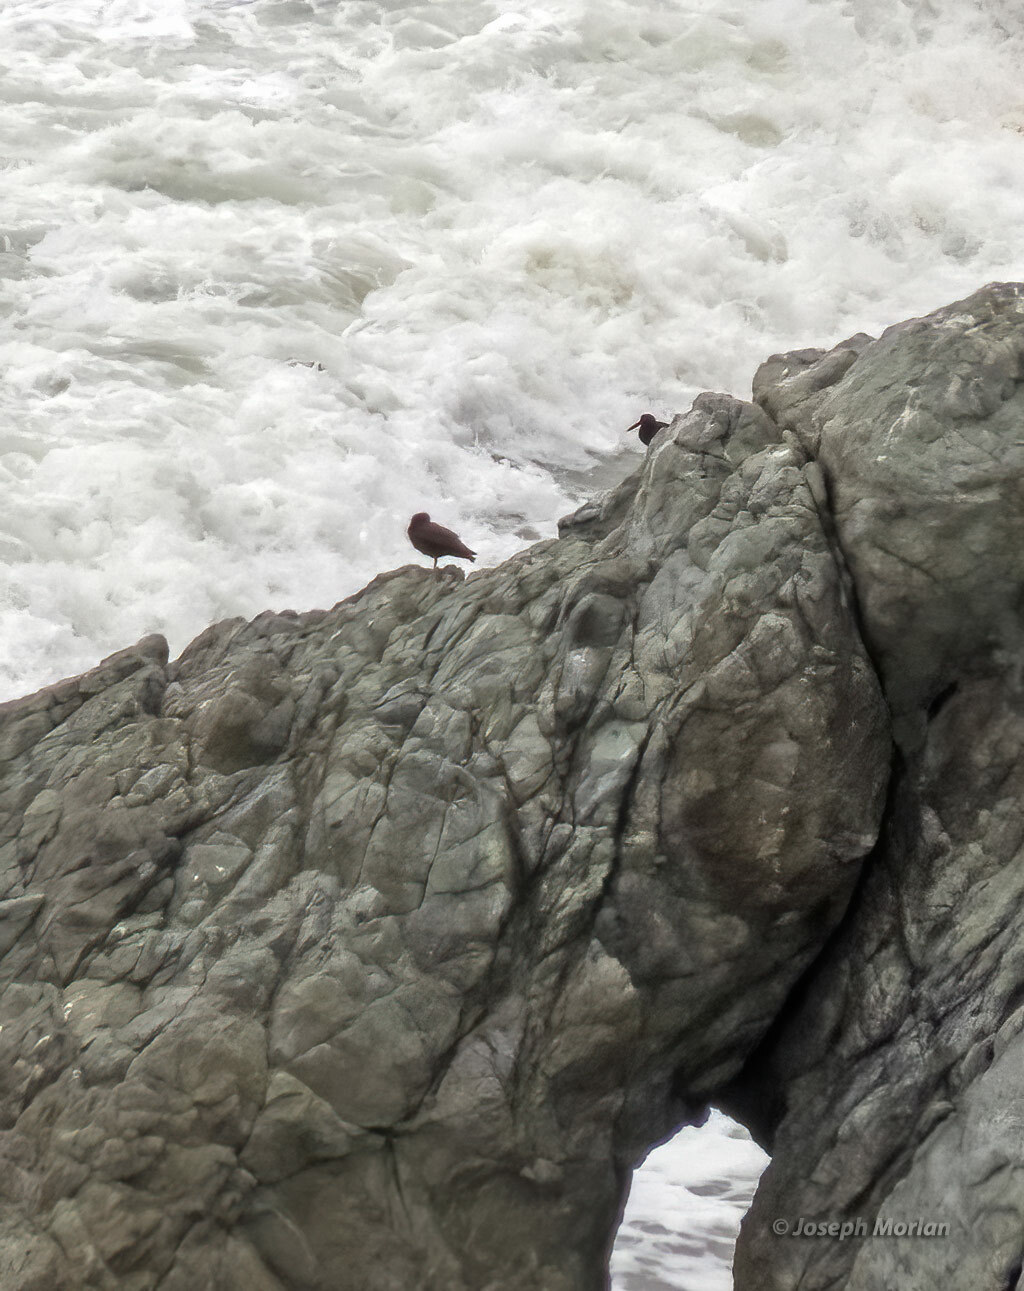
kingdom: Animalia
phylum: Chordata
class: Aves
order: Charadriiformes
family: Haematopodidae
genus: Haematopus
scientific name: Haematopus bachmani
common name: Black oystercatcher
